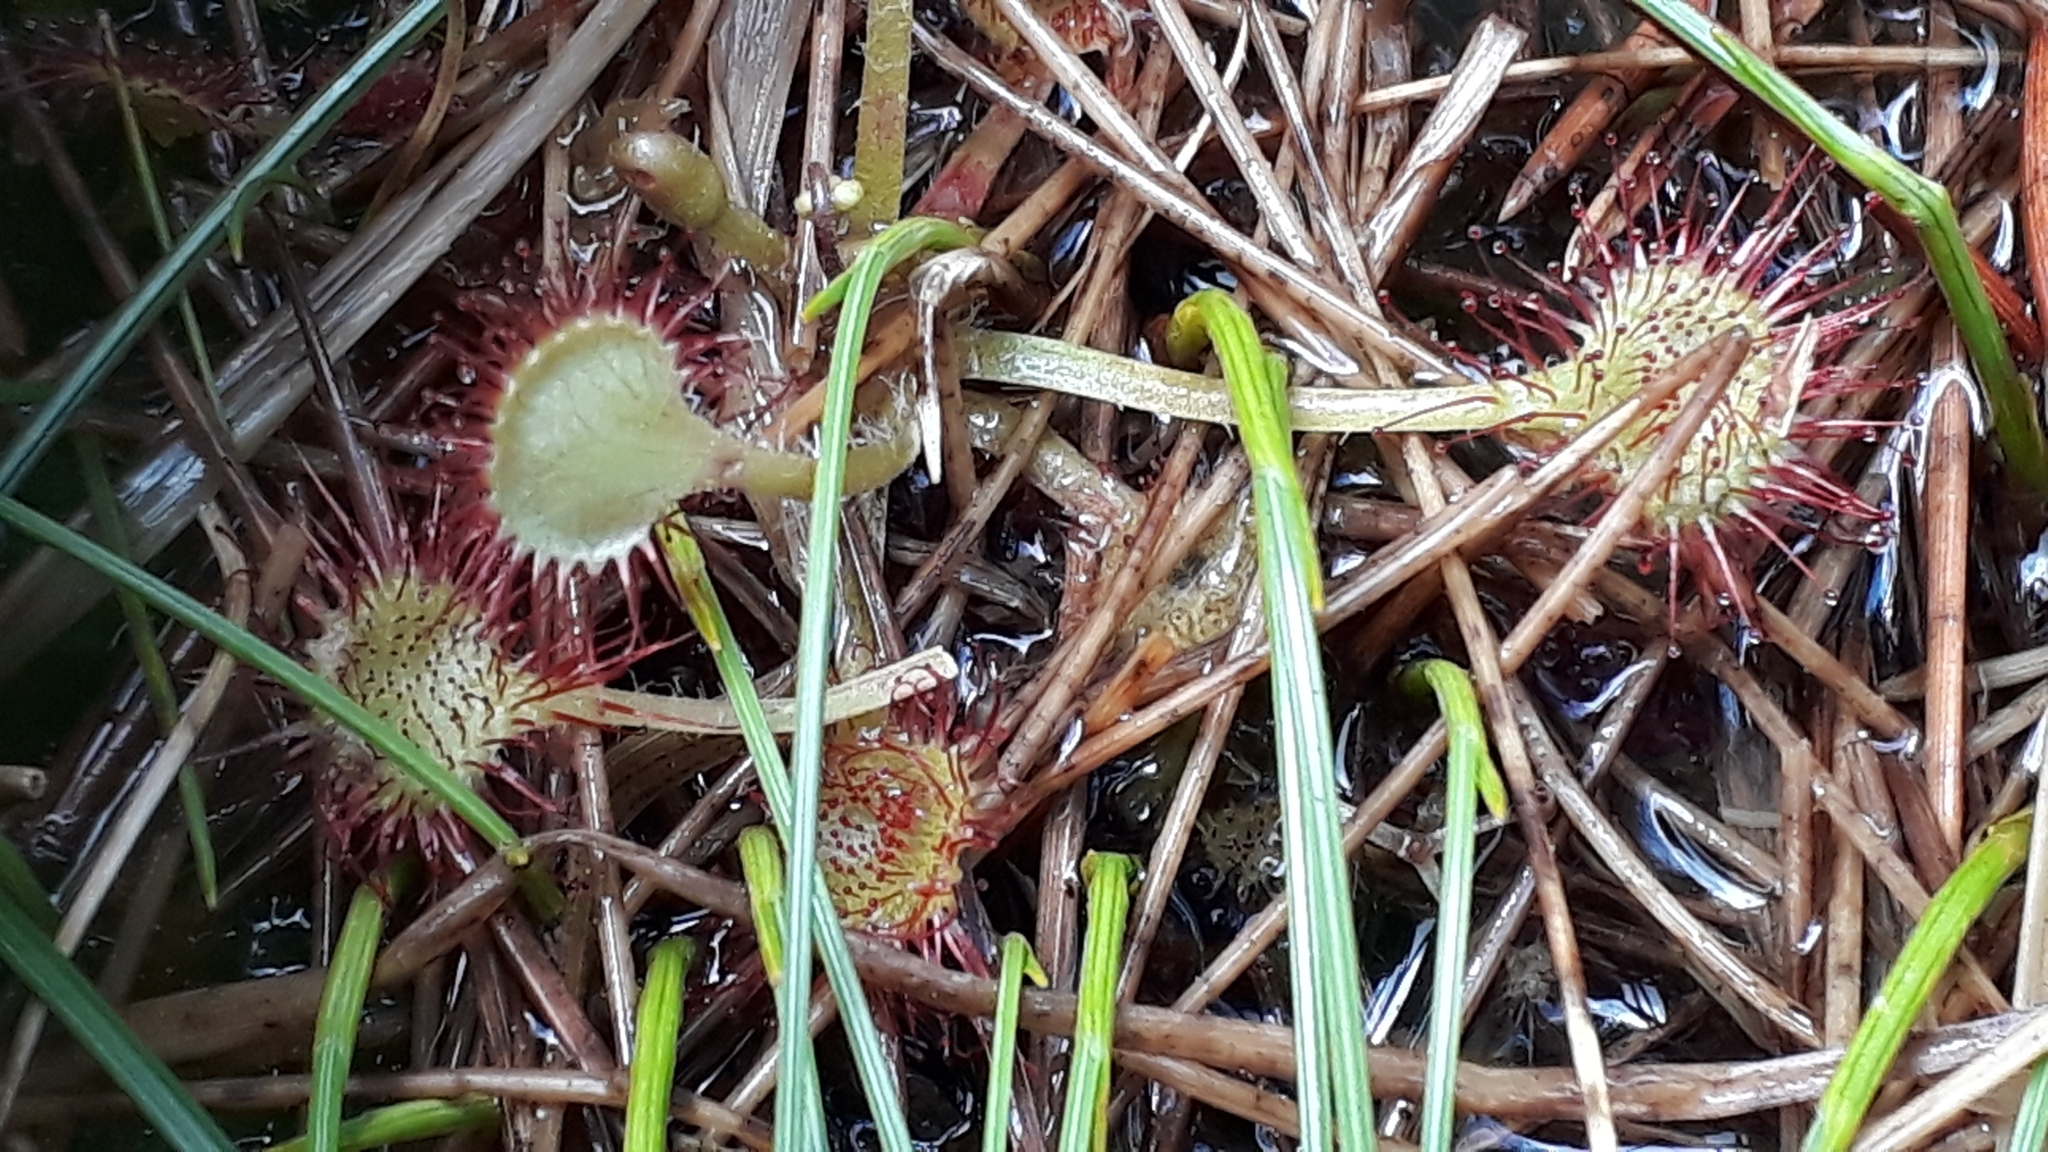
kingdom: Plantae
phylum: Tracheophyta
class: Magnoliopsida
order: Caryophyllales
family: Droseraceae
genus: Drosera
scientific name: Drosera rotundifolia
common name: Round-leaved sundew
